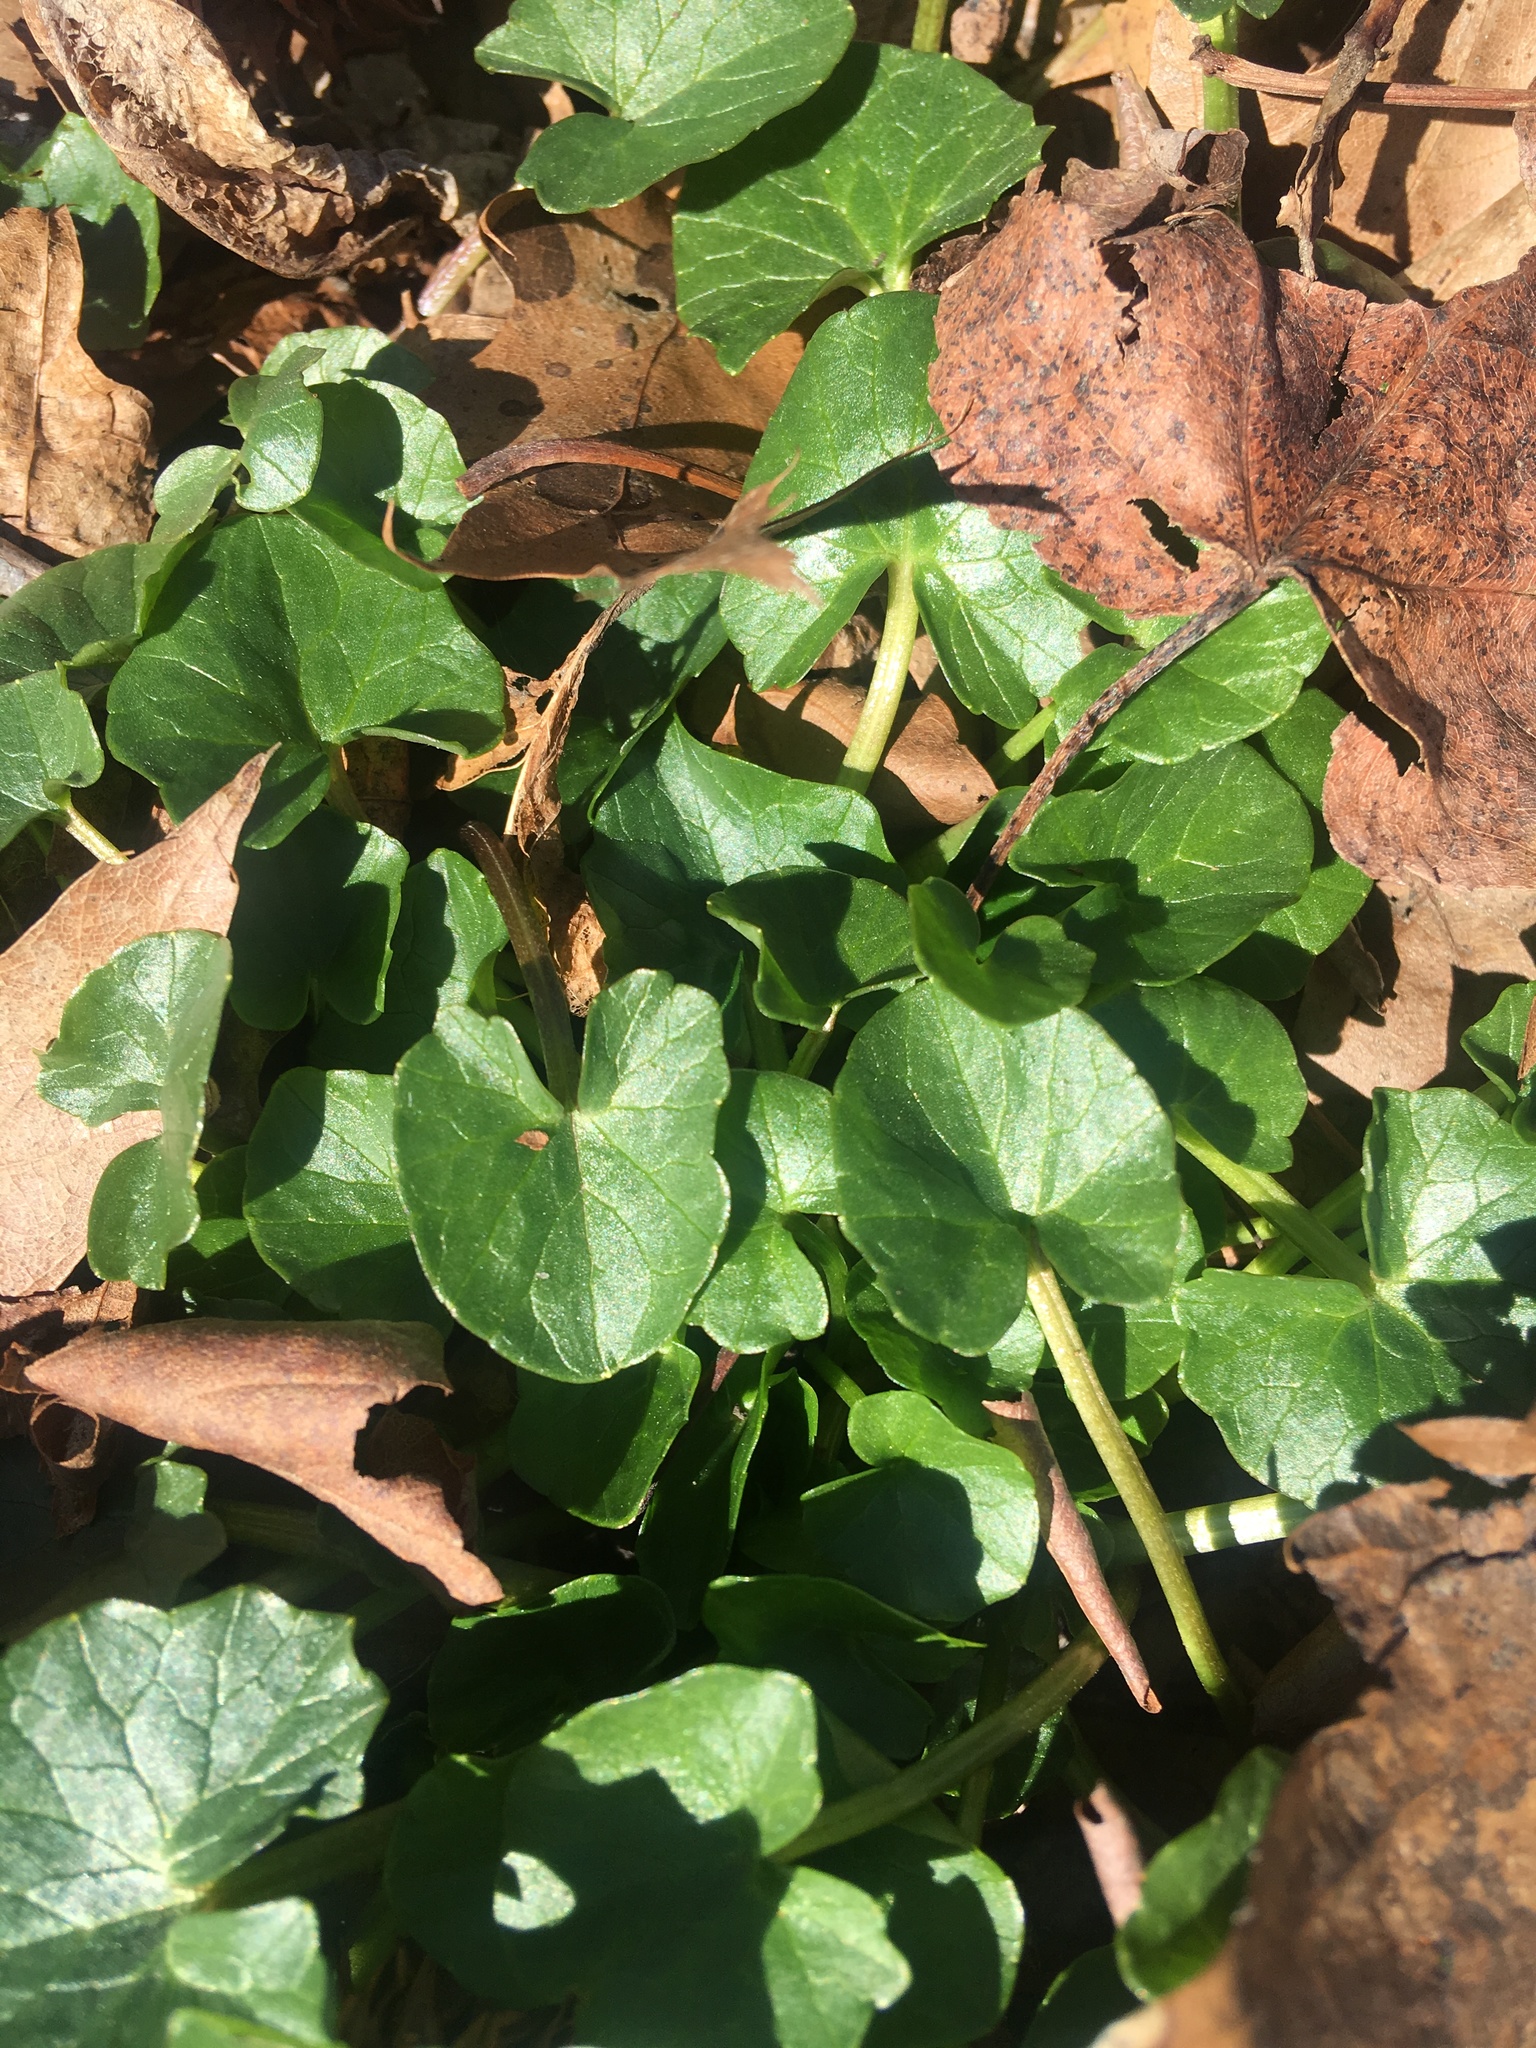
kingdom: Plantae
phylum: Tracheophyta
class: Magnoliopsida
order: Ranunculales
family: Ranunculaceae
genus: Ficaria
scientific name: Ficaria verna
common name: Lesser celandine
